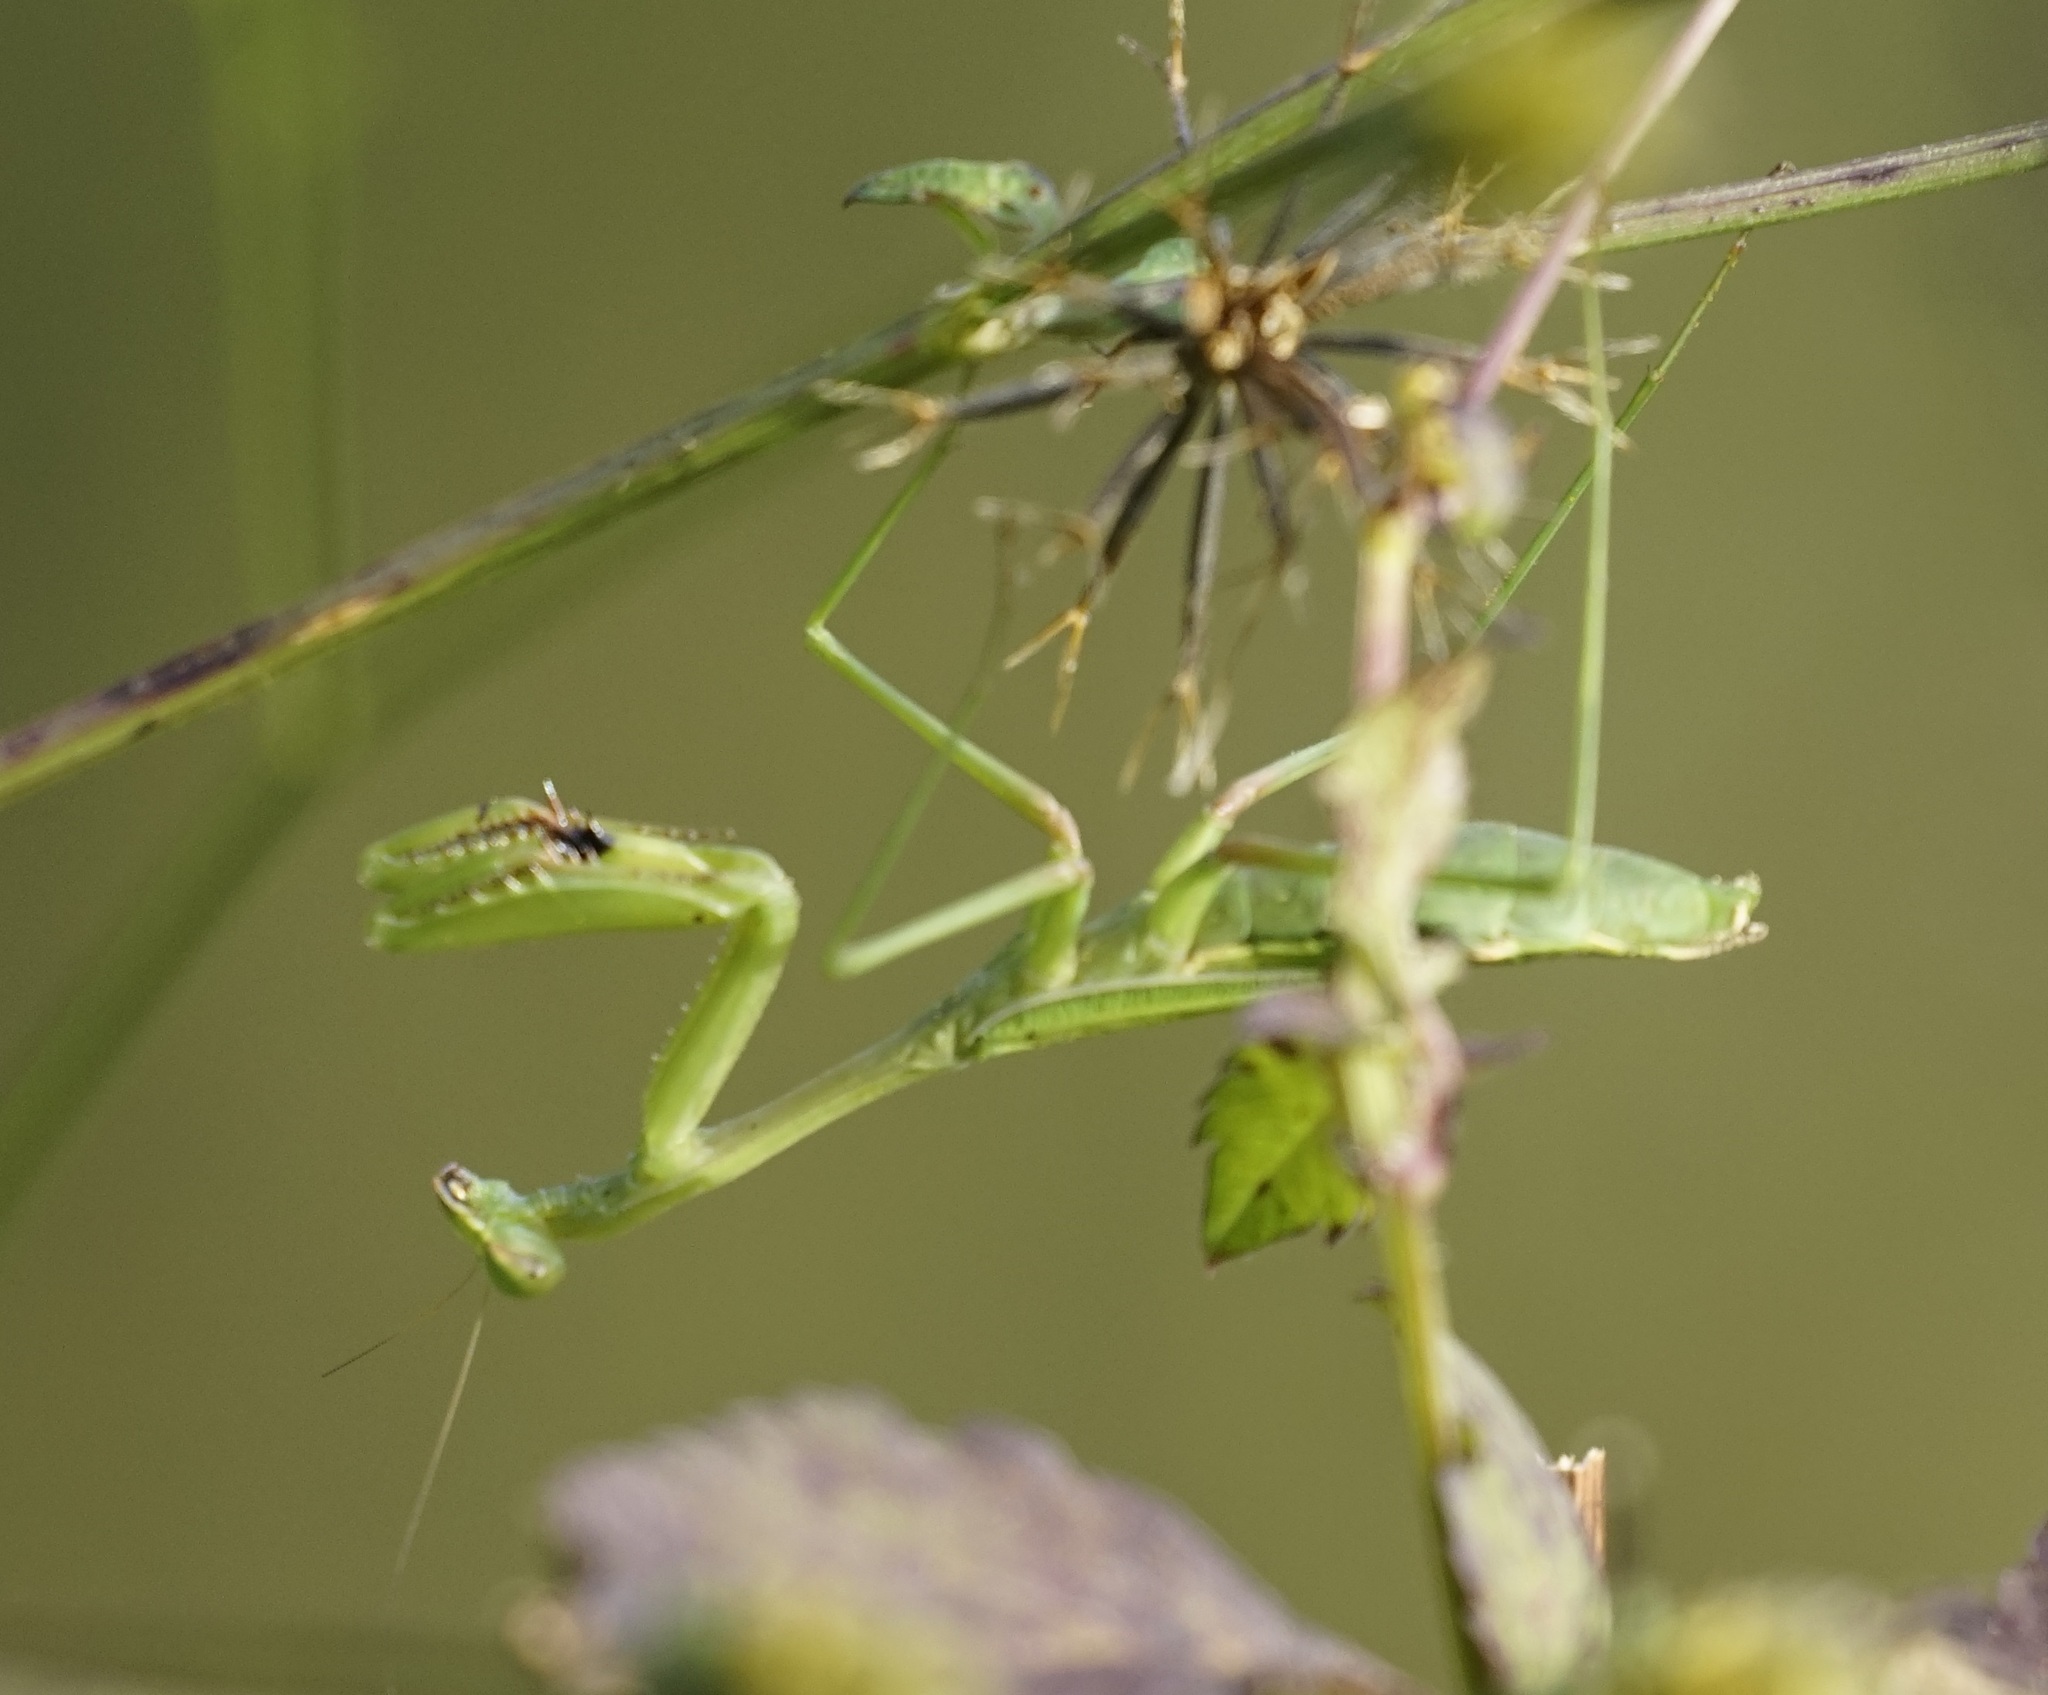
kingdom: Animalia
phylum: Arthropoda
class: Insecta
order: Mantodea
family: Mantidae
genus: Pseudomantis
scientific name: Pseudomantis albofimbriata
